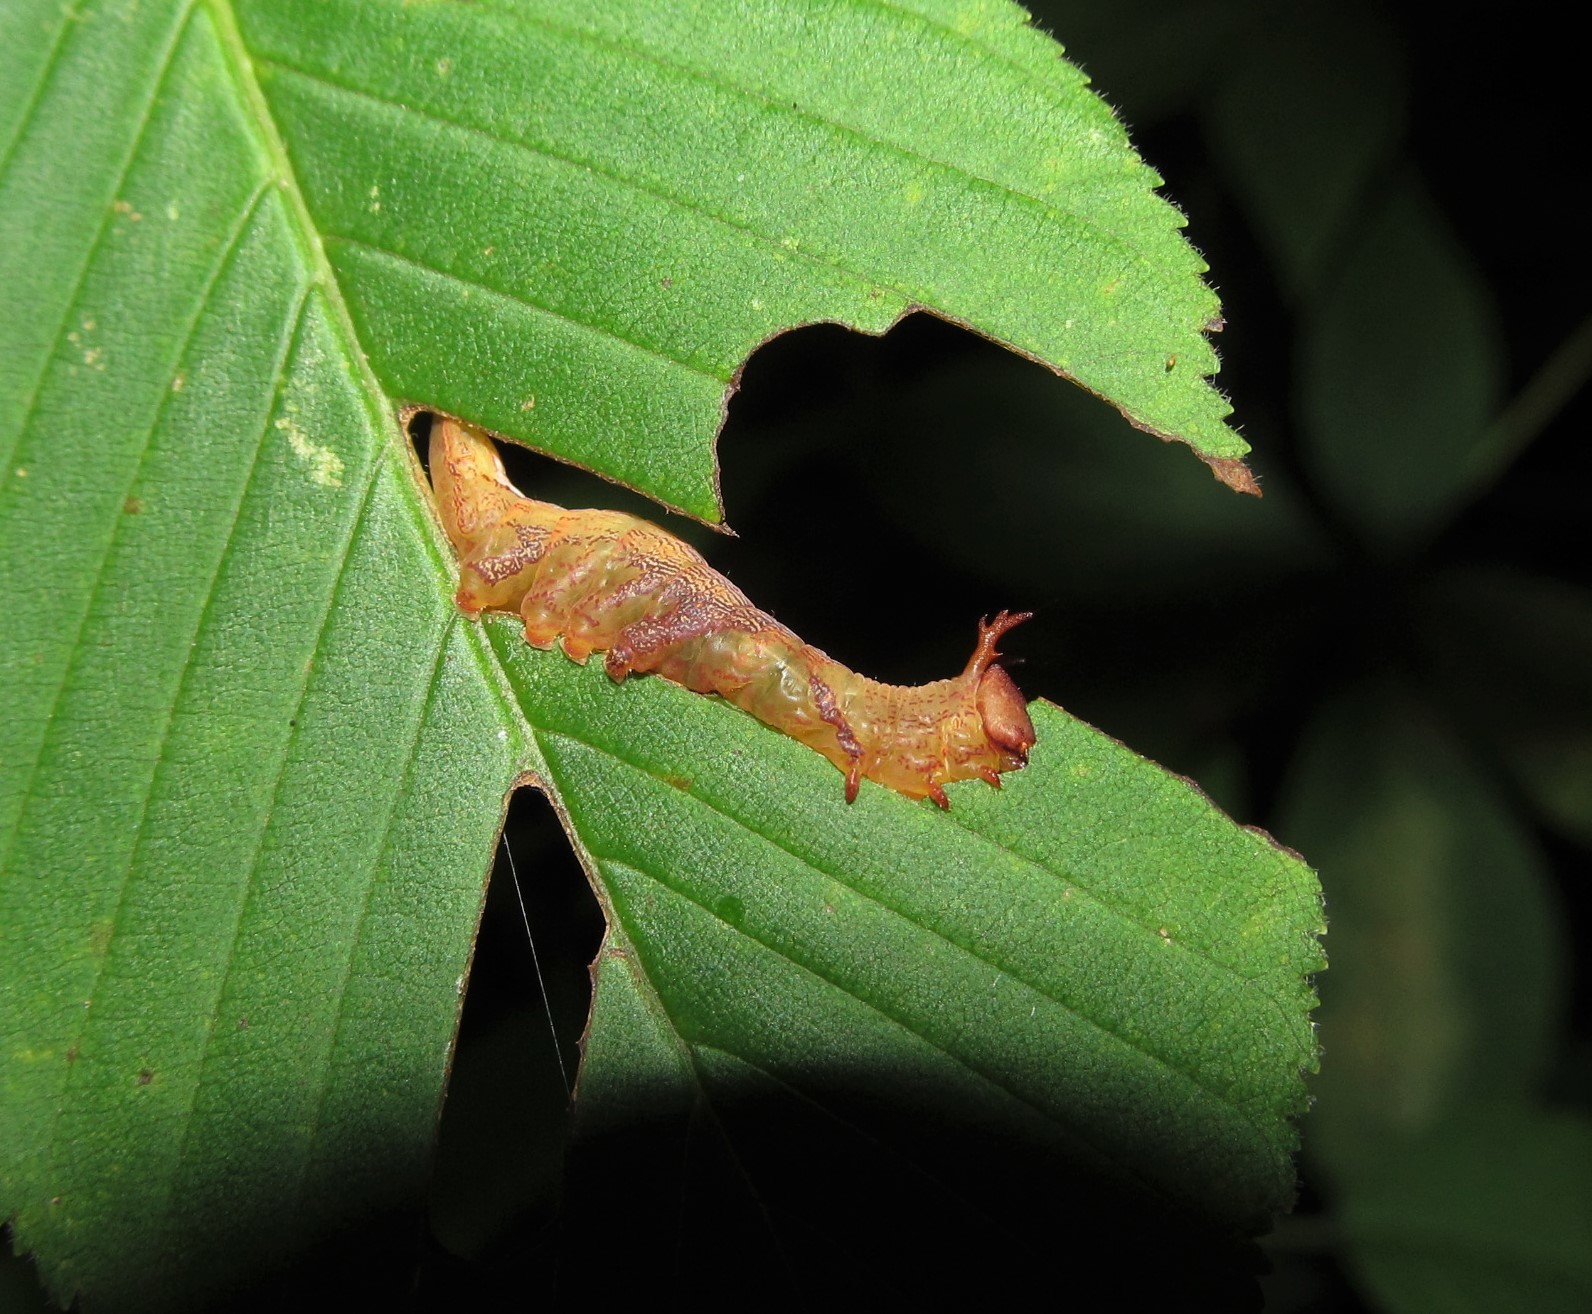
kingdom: Animalia
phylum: Arthropoda
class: Insecta
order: Lepidoptera
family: Notodontidae
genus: Oligocentria
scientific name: Oligocentria Ianassa lignicolor
